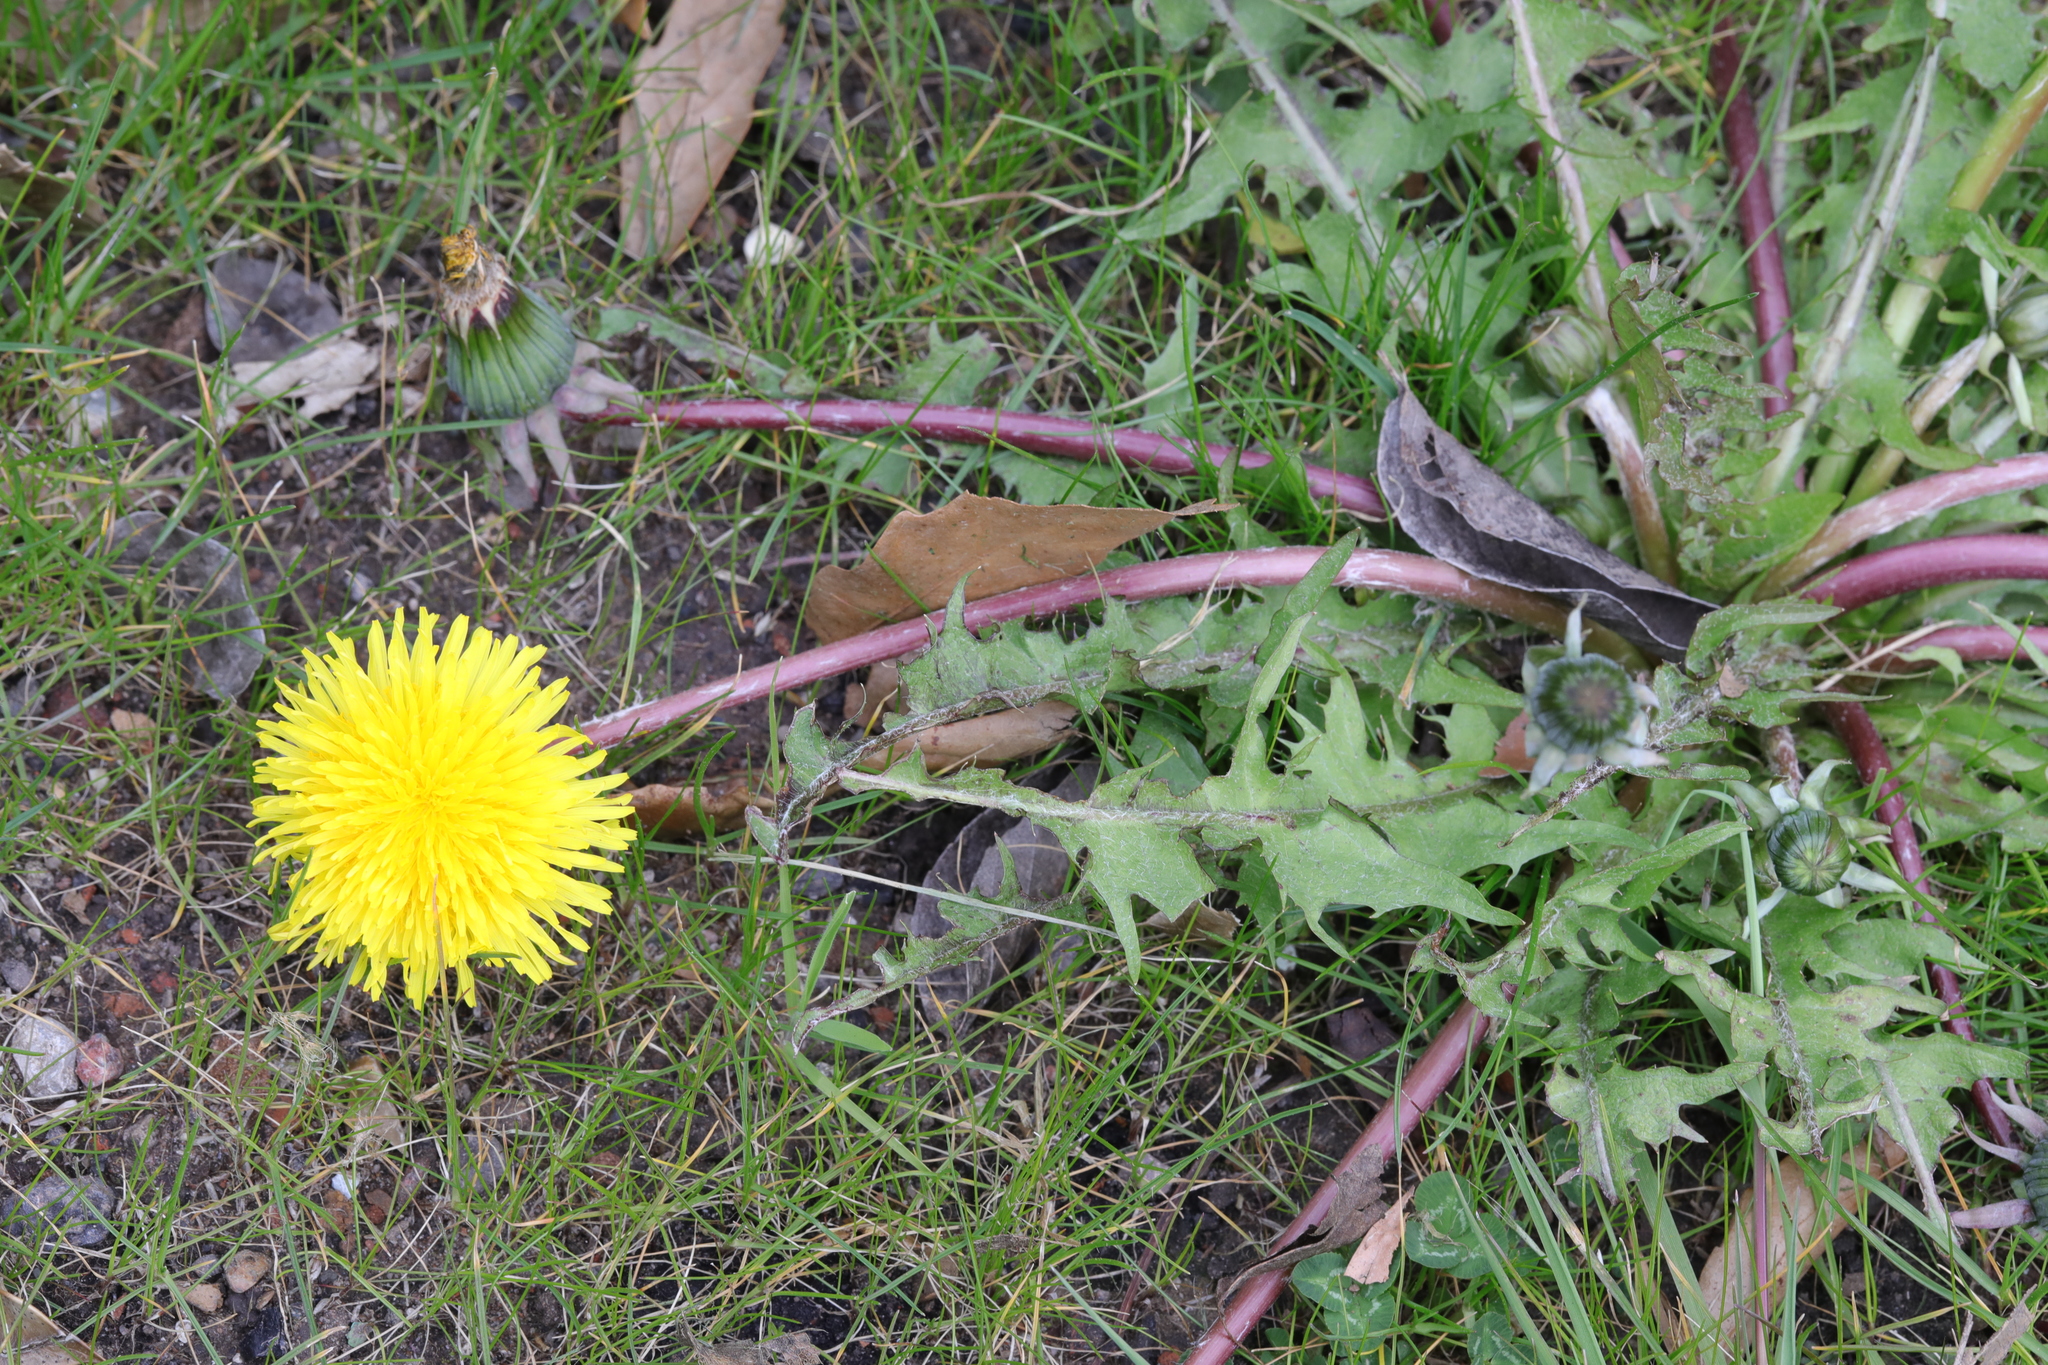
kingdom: Plantae
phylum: Tracheophyta
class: Magnoliopsida
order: Asterales
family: Asteraceae
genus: Taraxacum
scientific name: Taraxacum officinale
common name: Common dandelion
